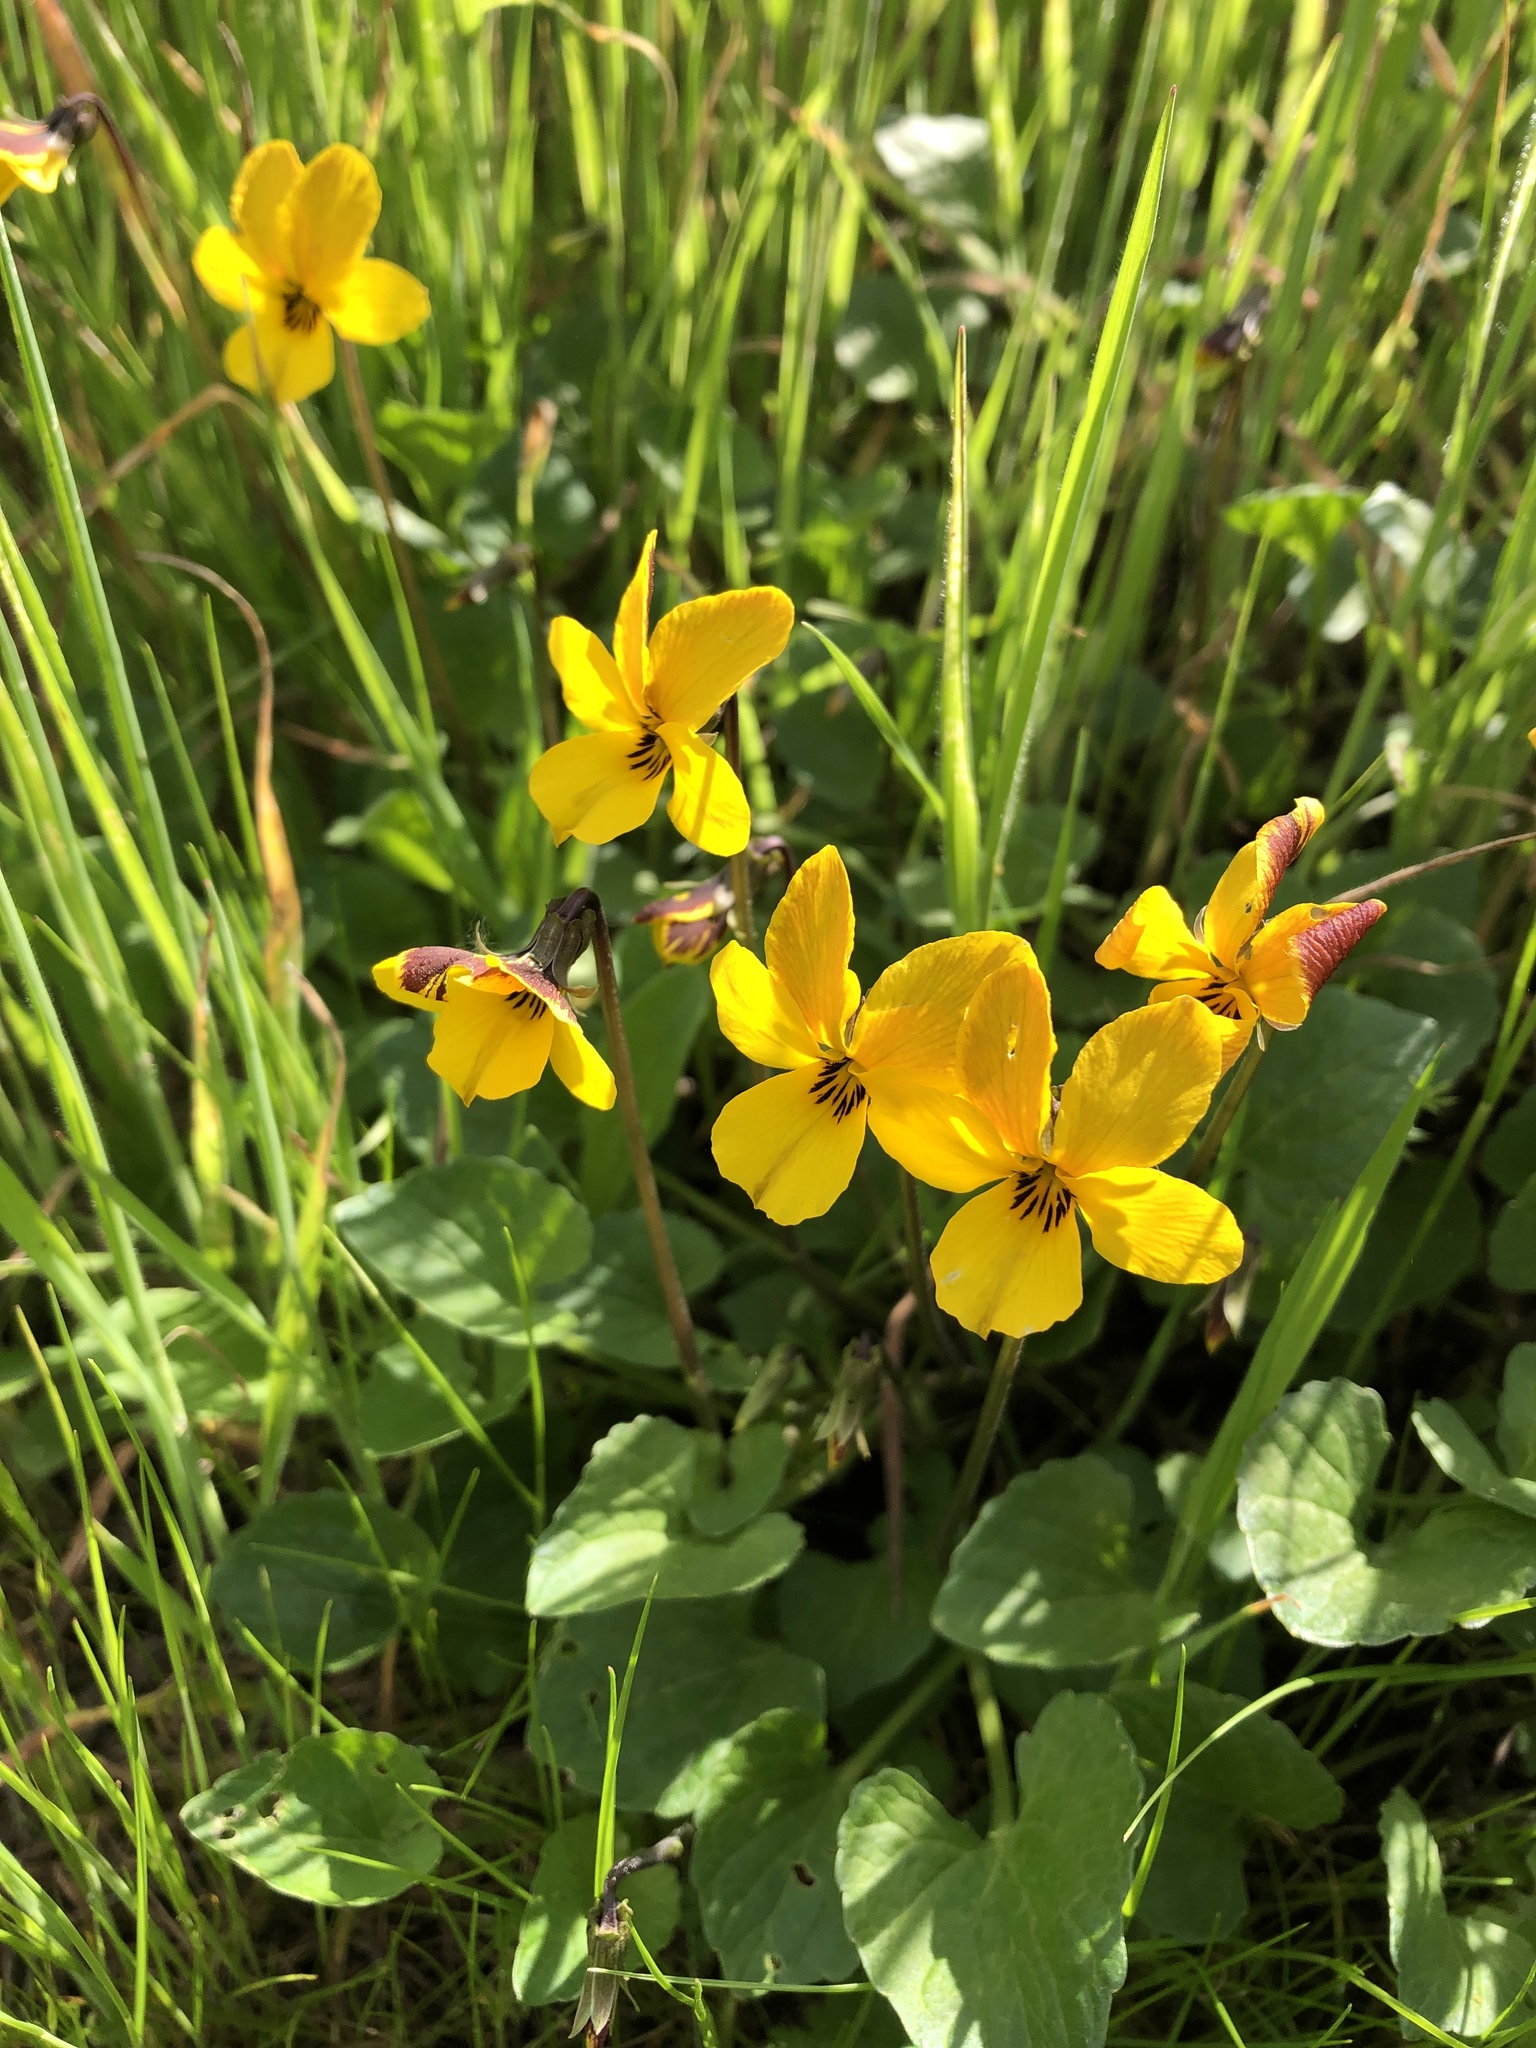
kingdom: Plantae
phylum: Tracheophyta
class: Magnoliopsida
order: Malpighiales
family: Violaceae
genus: Viola
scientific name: Viola pedunculata
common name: California golden violet
